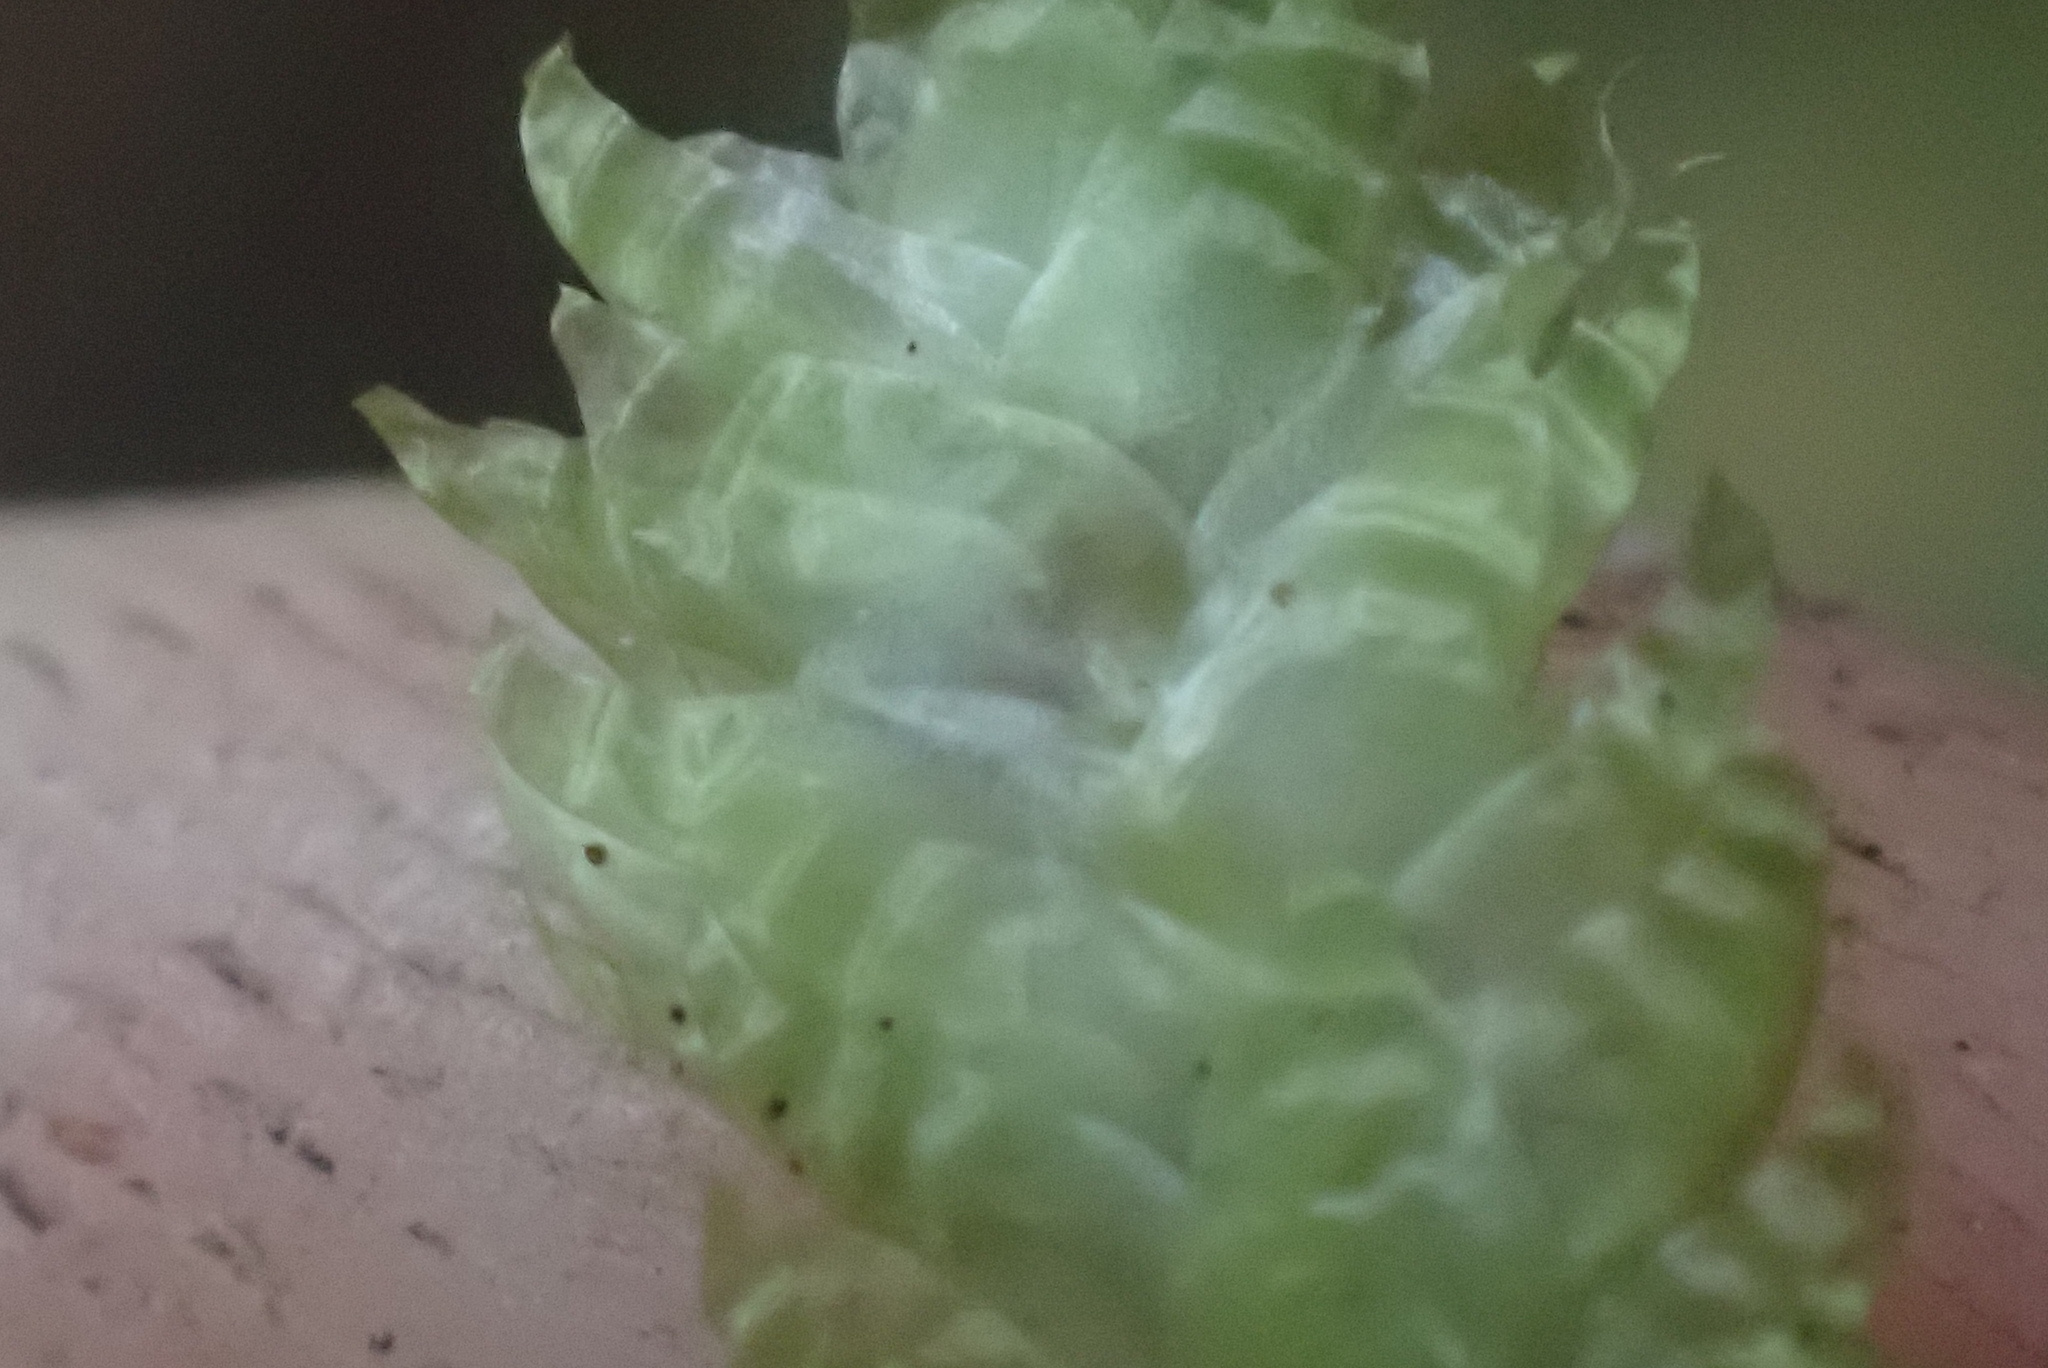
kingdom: Plantae
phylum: Bryophyta
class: Bryopsida
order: Hypnales
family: Plagiotheciaceae
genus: Plagiothecium
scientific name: Plagiothecium undulatum
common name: Waved silk-moss
